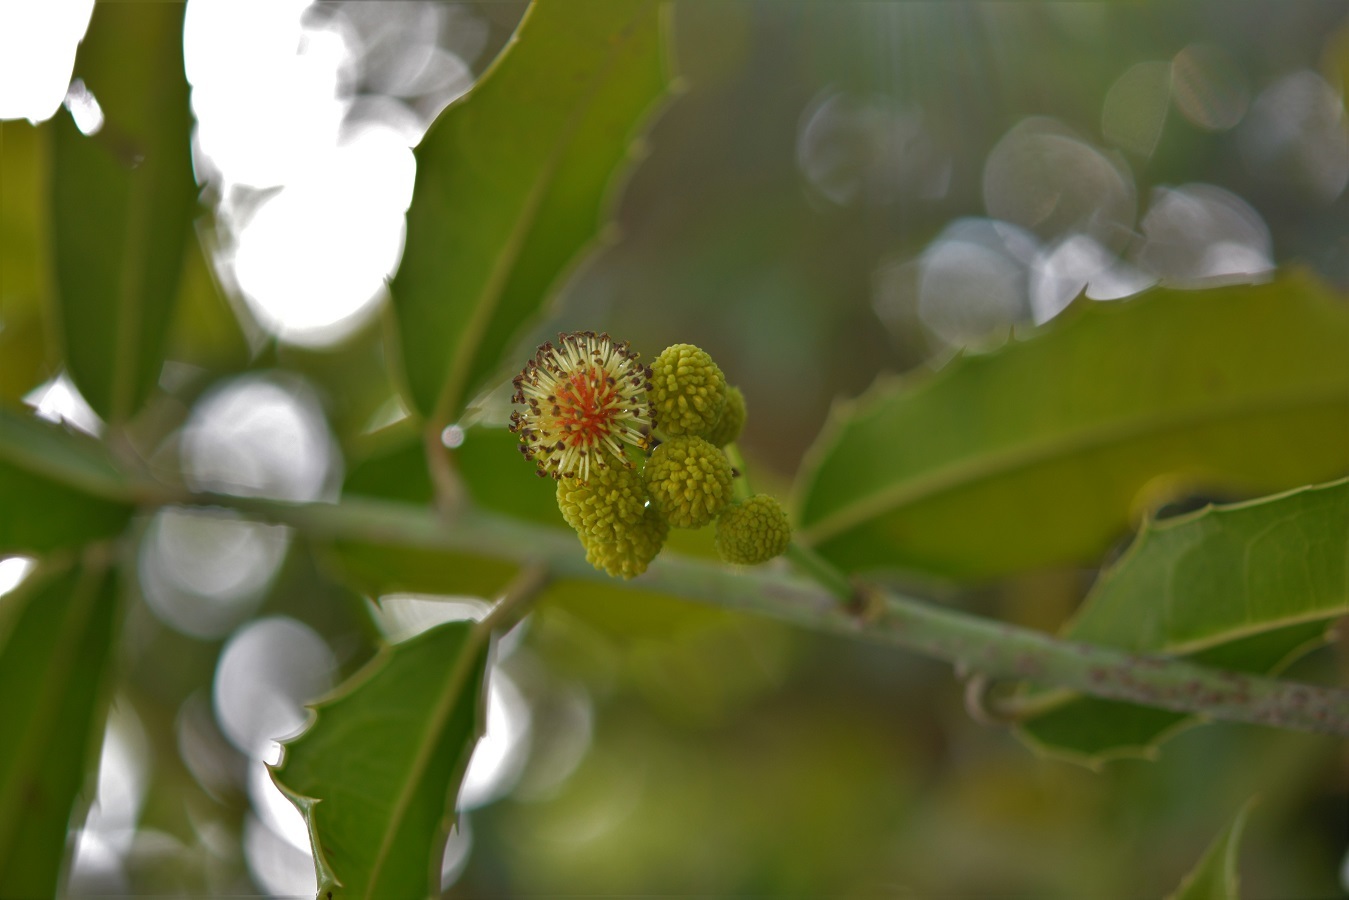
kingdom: Plantae
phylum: Tracheophyta
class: Magnoliopsida
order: Malpighiales
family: Salicaceae
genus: Olmediella
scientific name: Olmediella betschleriana
